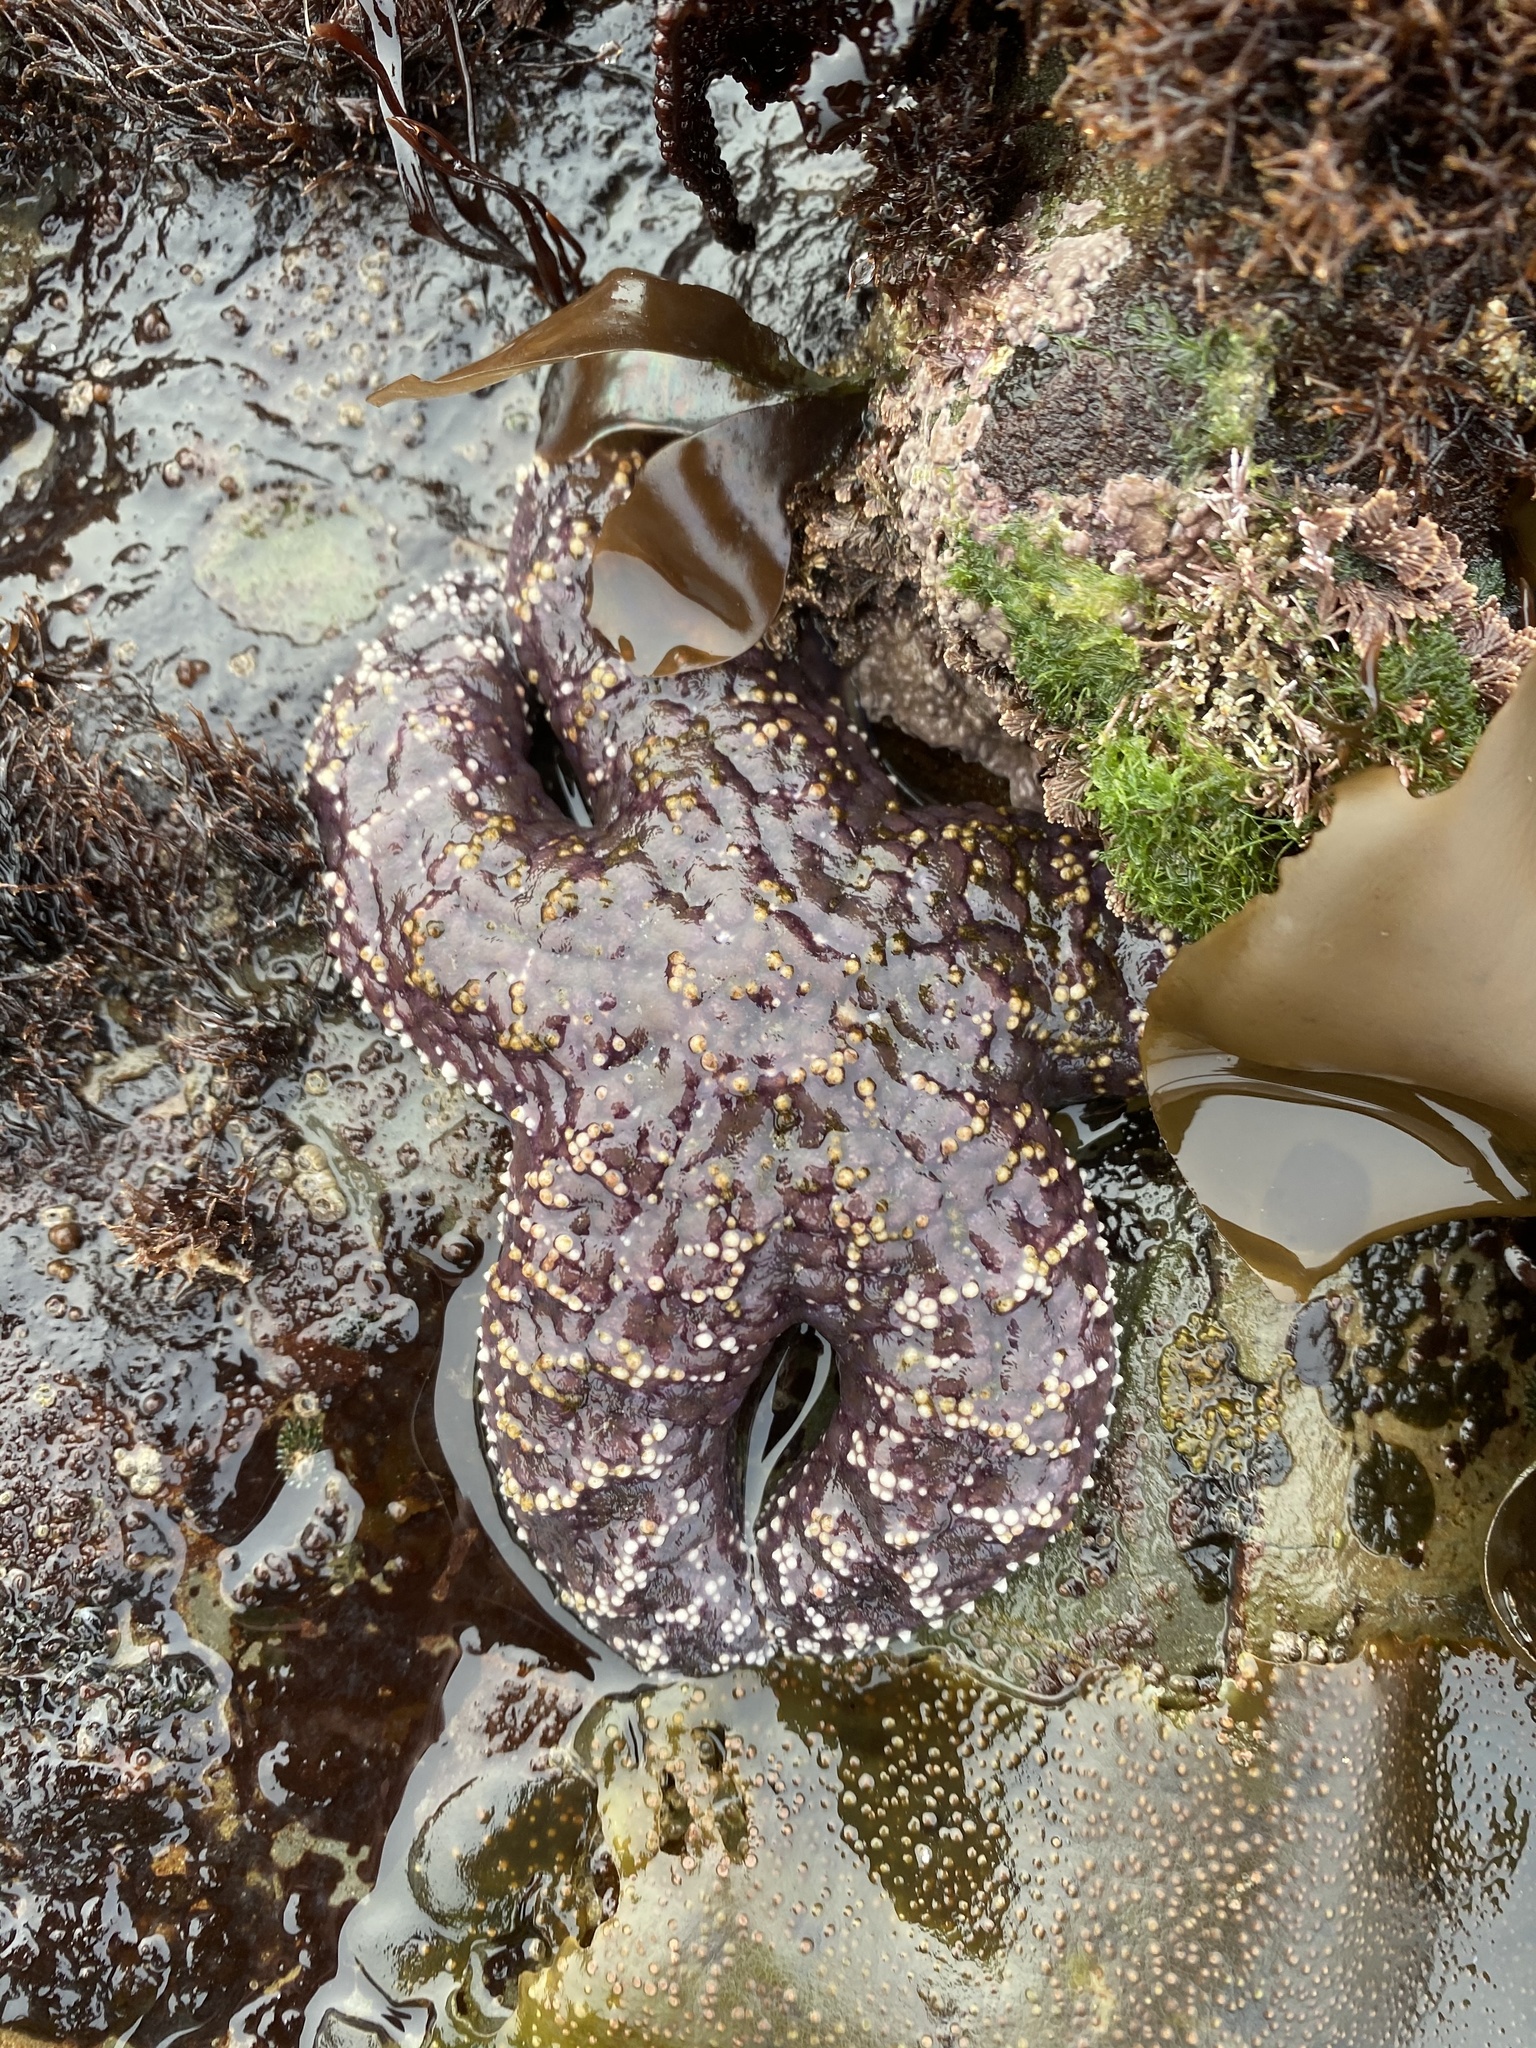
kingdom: Animalia
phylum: Echinodermata
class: Asteroidea
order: Forcipulatida
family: Asteriidae
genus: Pisaster
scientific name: Pisaster ochraceus
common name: Ochre stars
